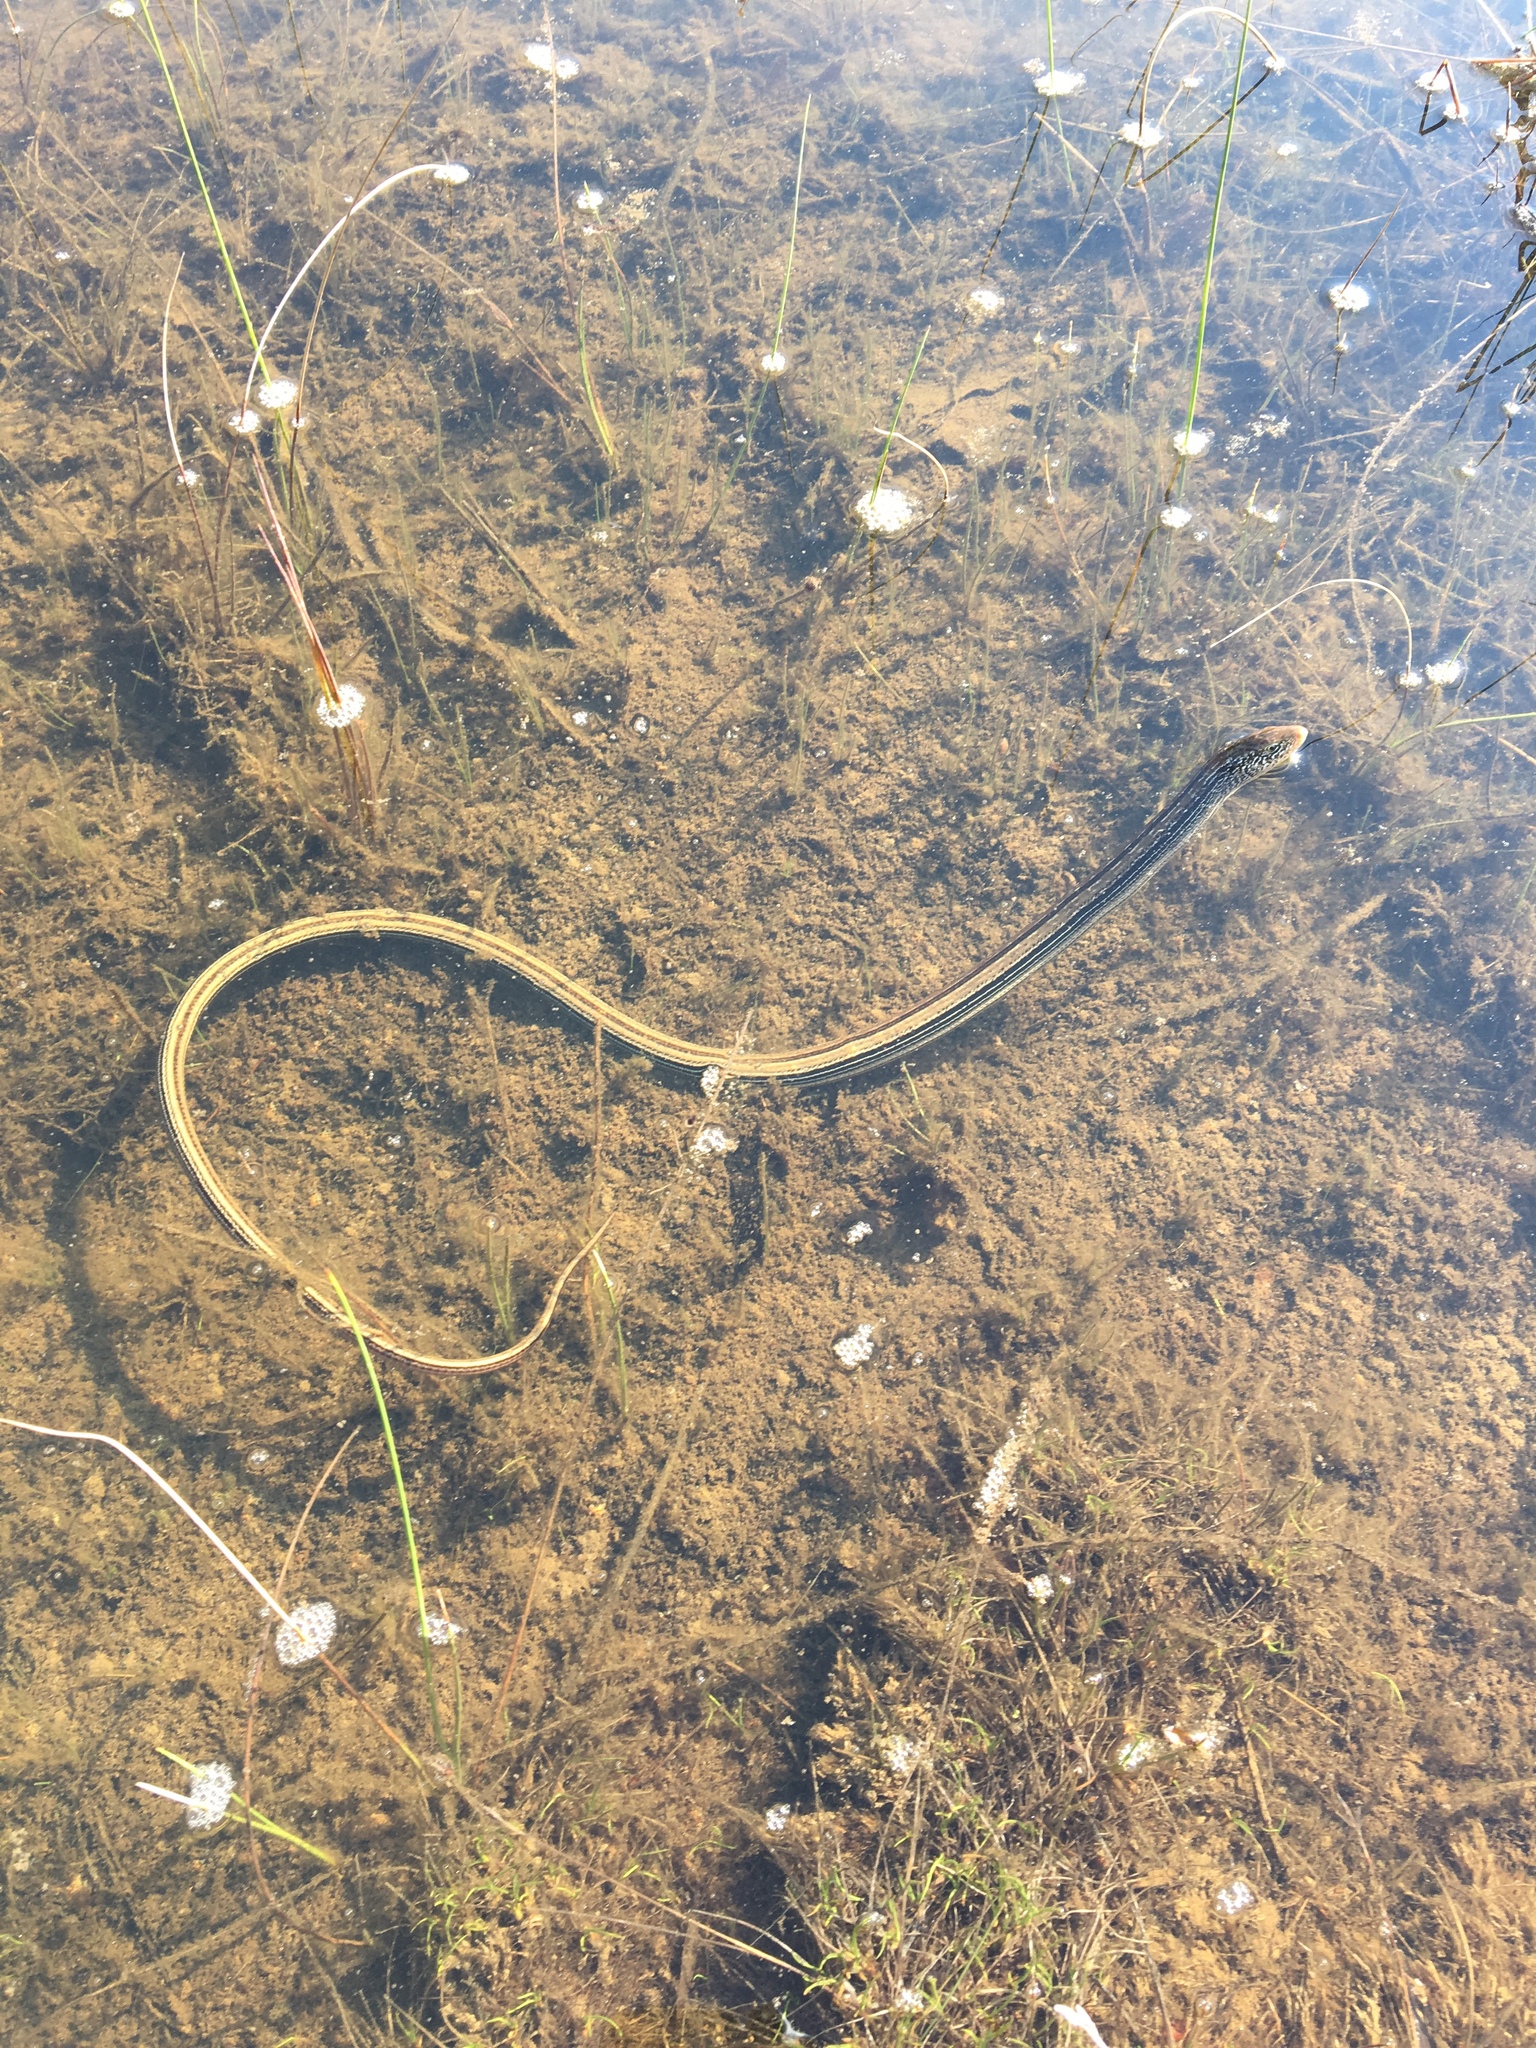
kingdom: Animalia
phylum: Chordata
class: Squamata
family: Anguidae
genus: Ophisaurus
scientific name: Ophisaurus attenuatus
